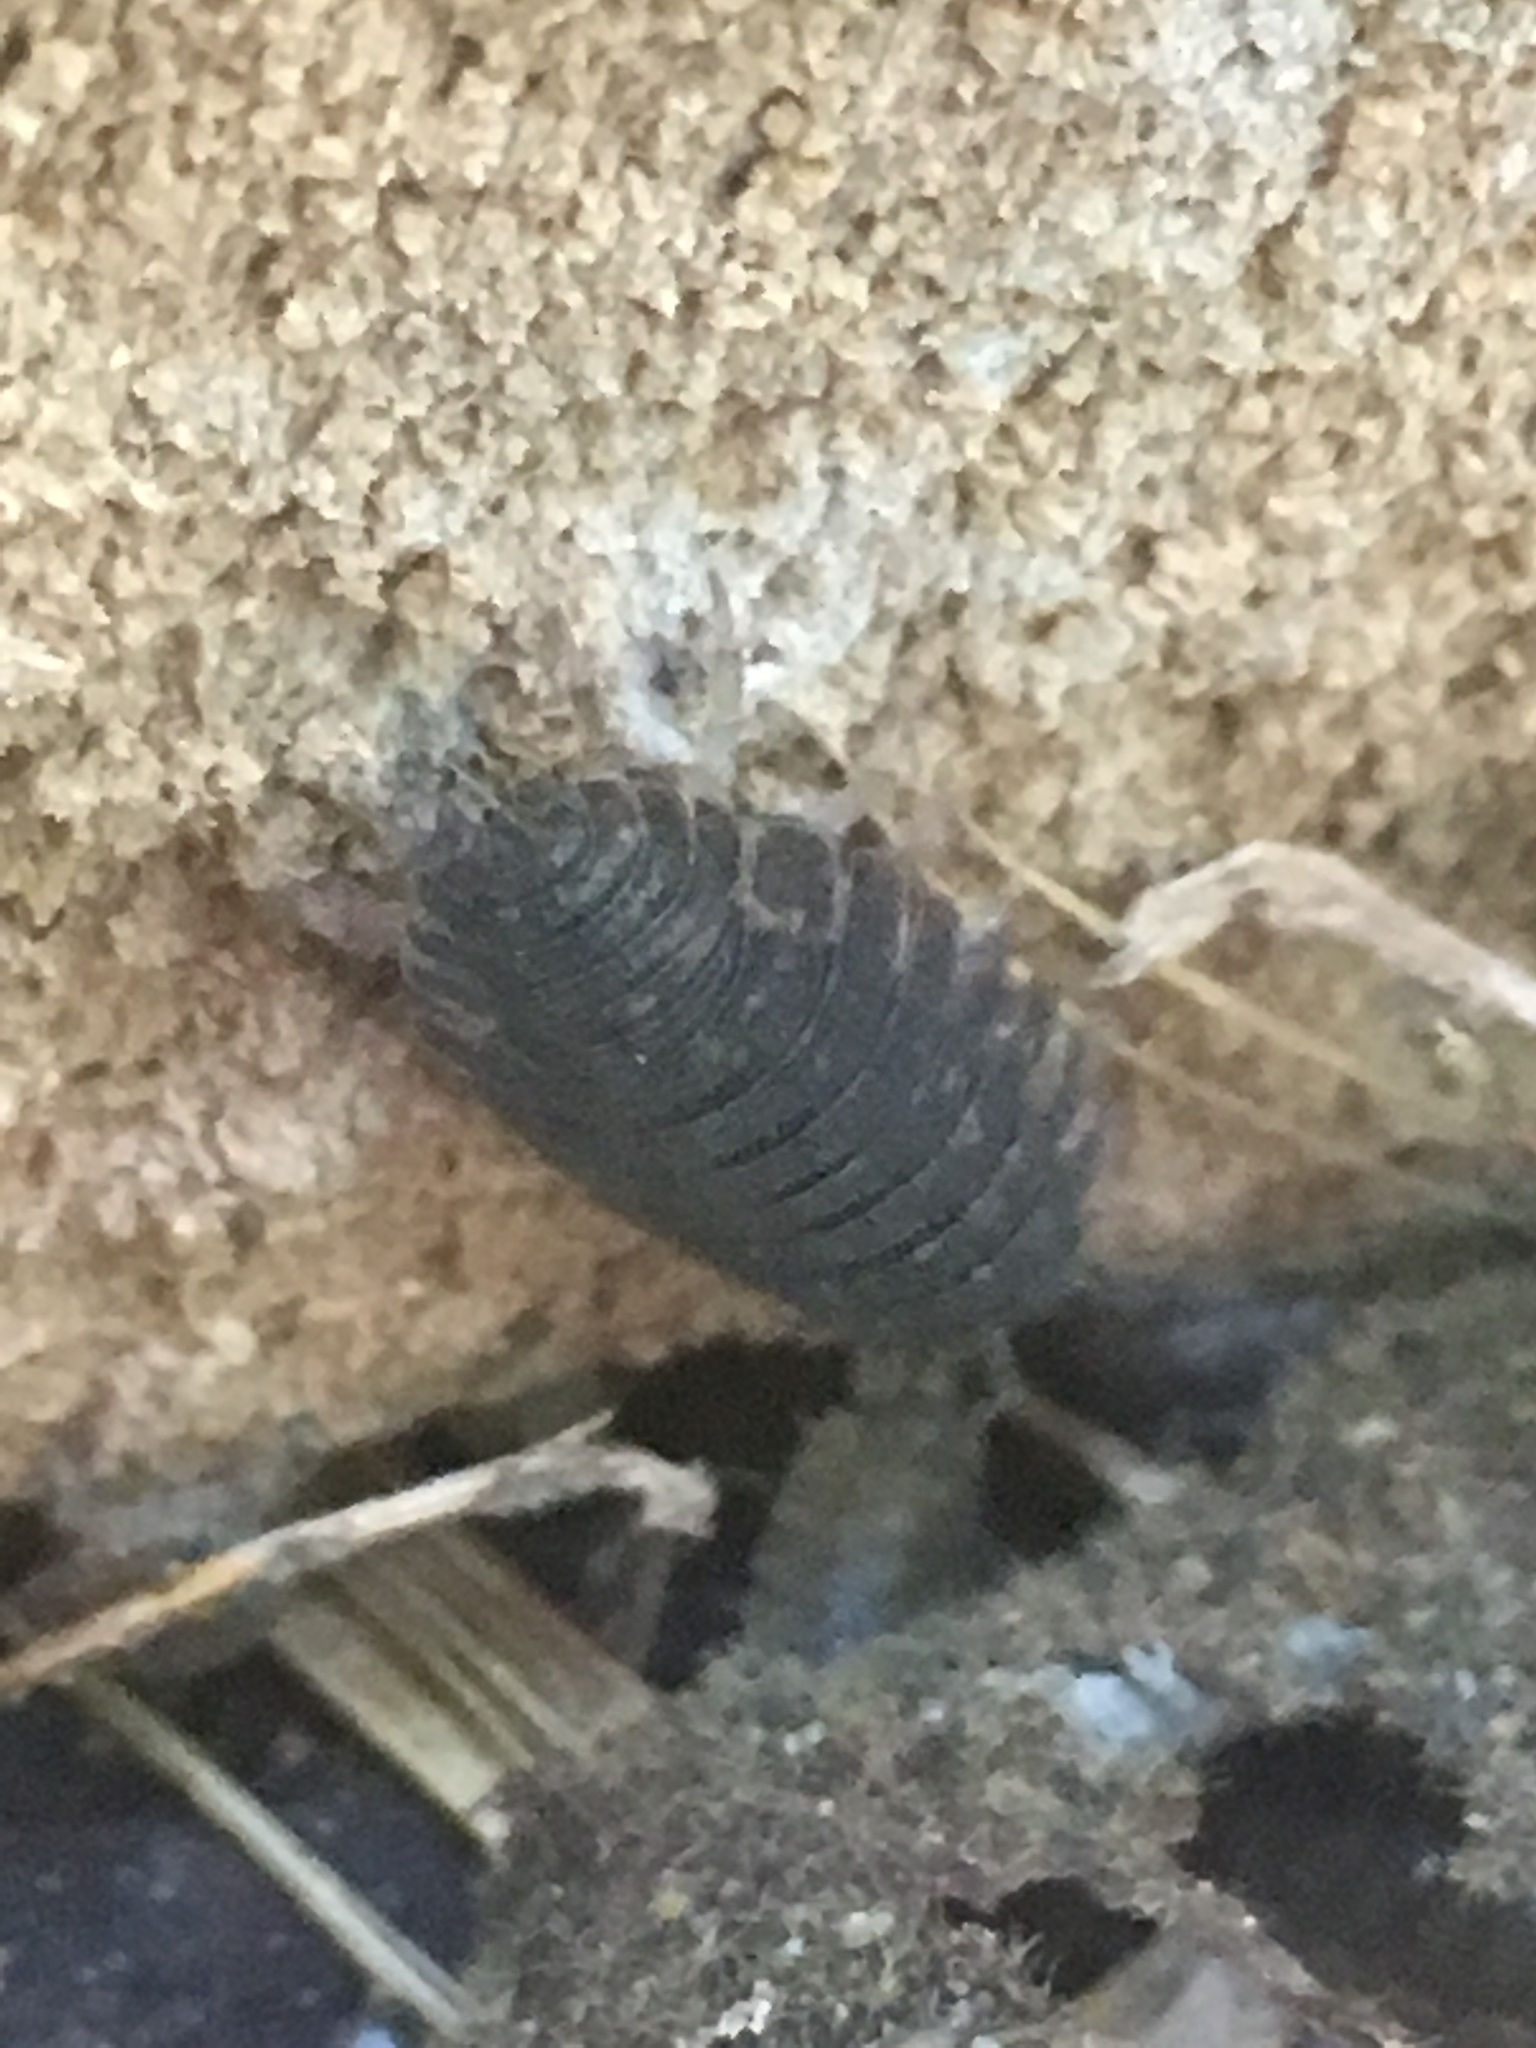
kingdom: Animalia
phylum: Arthropoda
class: Malacostraca
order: Isopoda
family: Porcellionidae
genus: Porcellio
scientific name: Porcellio scaber
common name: Common rough woodlouse
